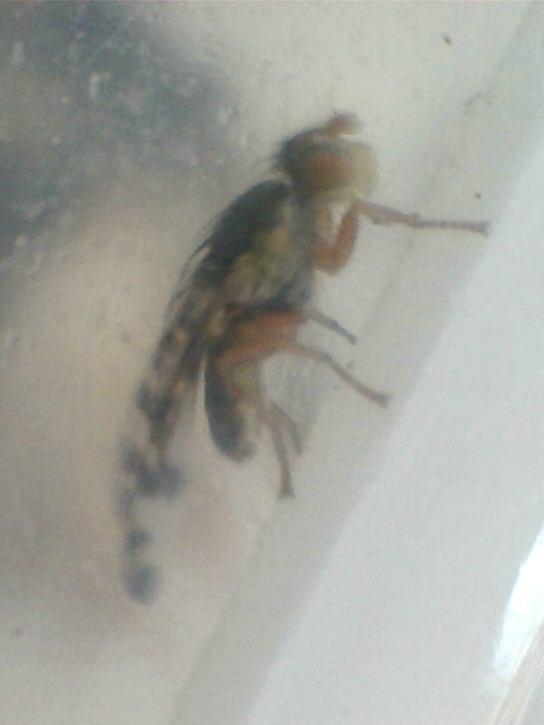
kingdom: Animalia
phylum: Arthropoda
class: Insecta
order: Diptera
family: Tephritidae
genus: Sphenella
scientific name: Sphenella marginata
